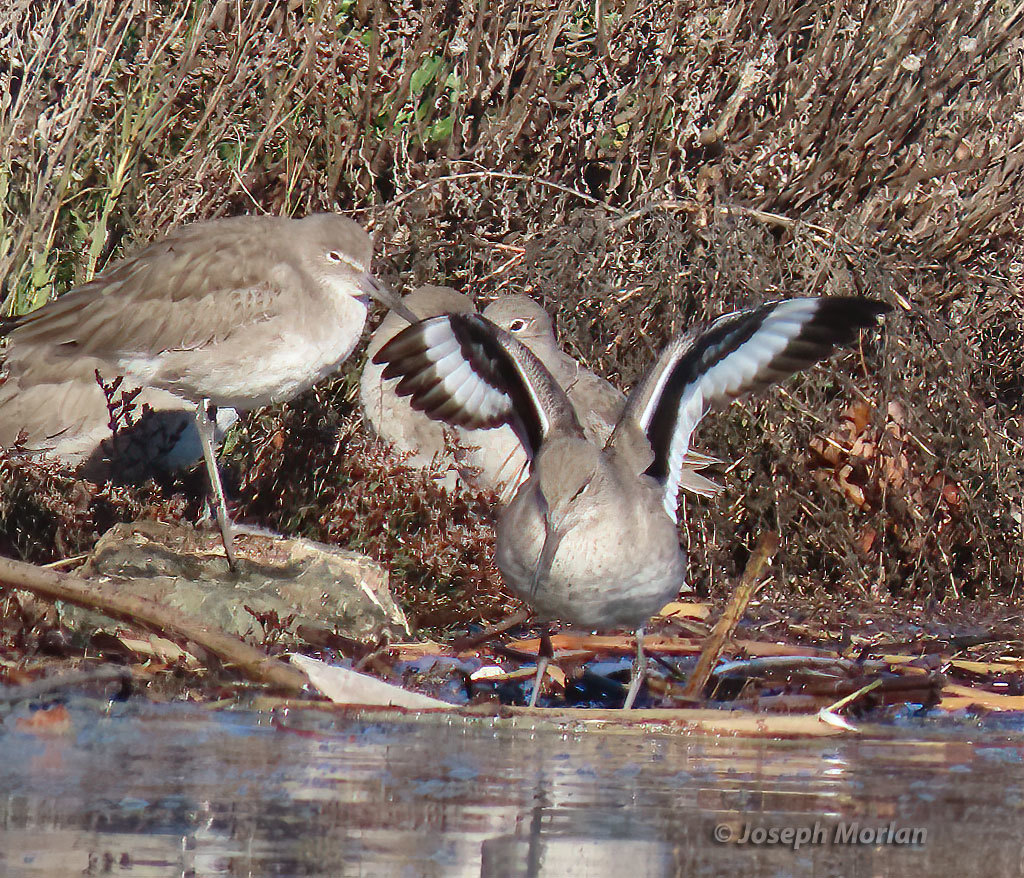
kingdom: Animalia
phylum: Chordata
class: Aves
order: Charadriiformes
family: Scolopacidae
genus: Tringa
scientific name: Tringa semipalmata
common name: Willet
